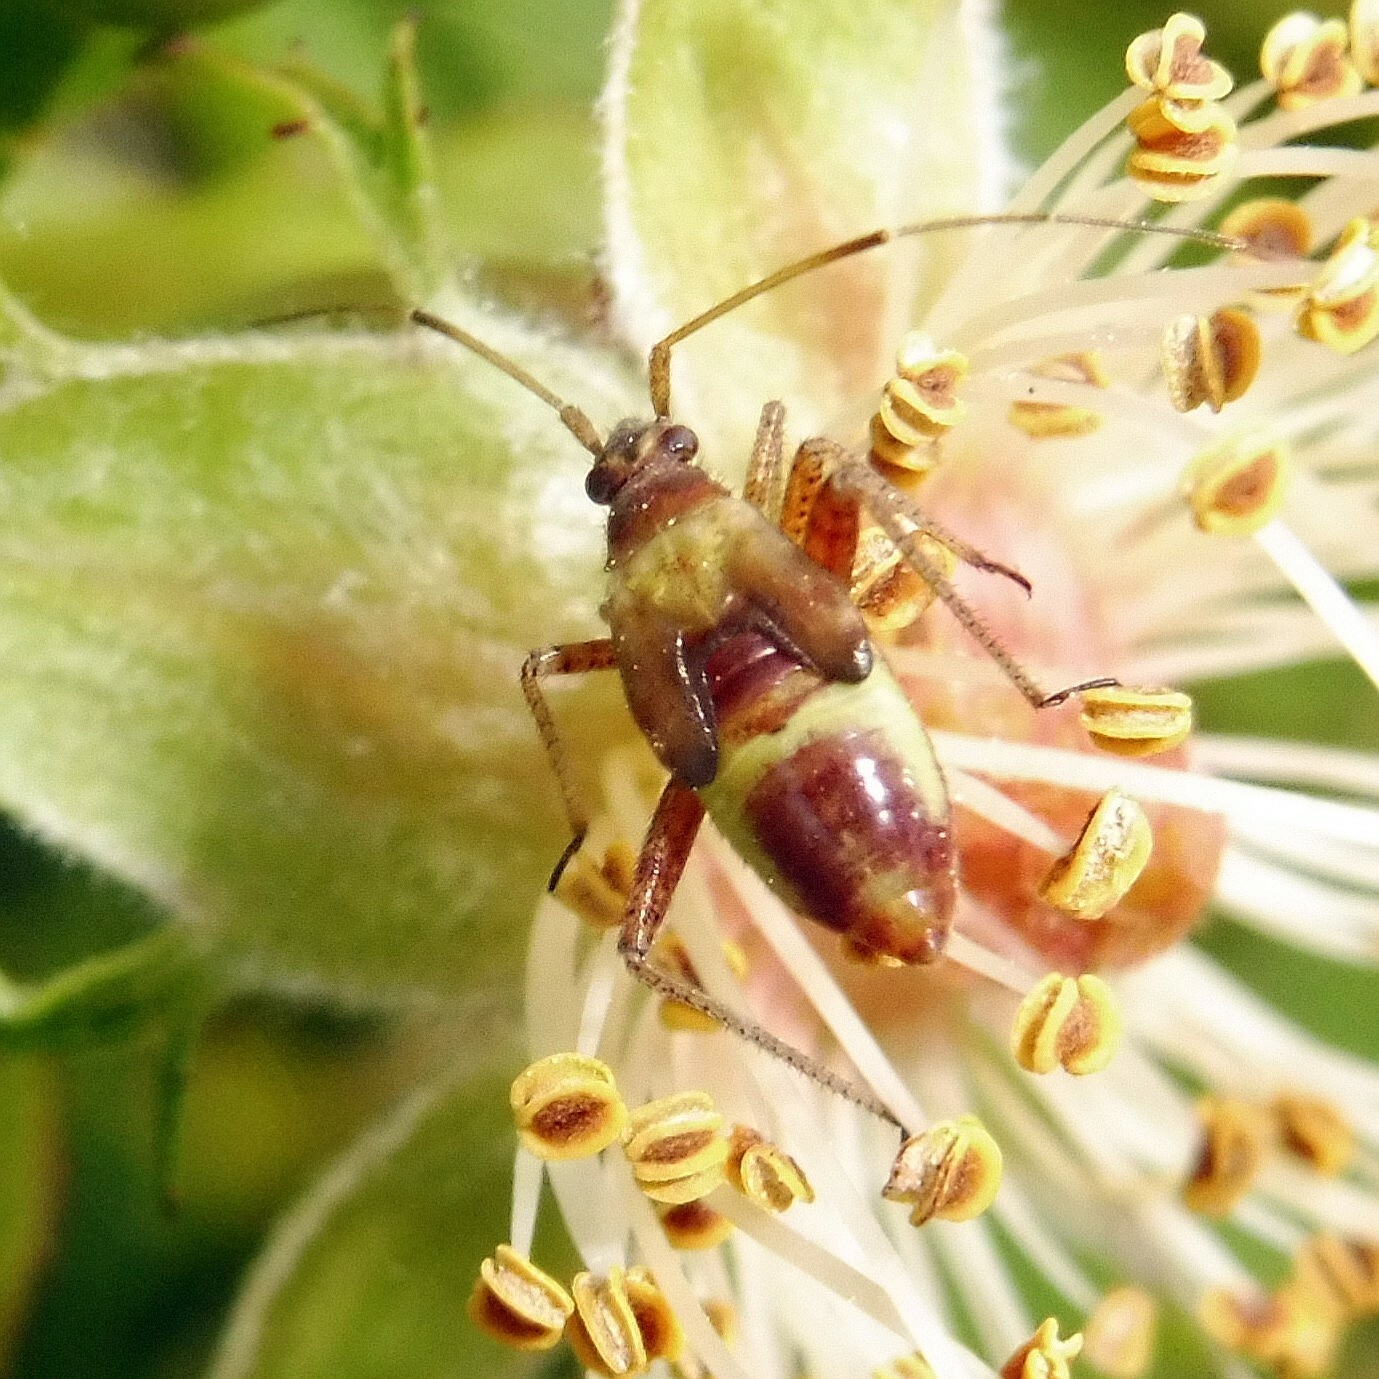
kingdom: Animalia
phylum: Arthropoda
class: Insecta
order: Hemiptera
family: Miridae
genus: Closterotomus
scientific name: Closterotomus fulvomaculatus
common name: Spotted plant bug
